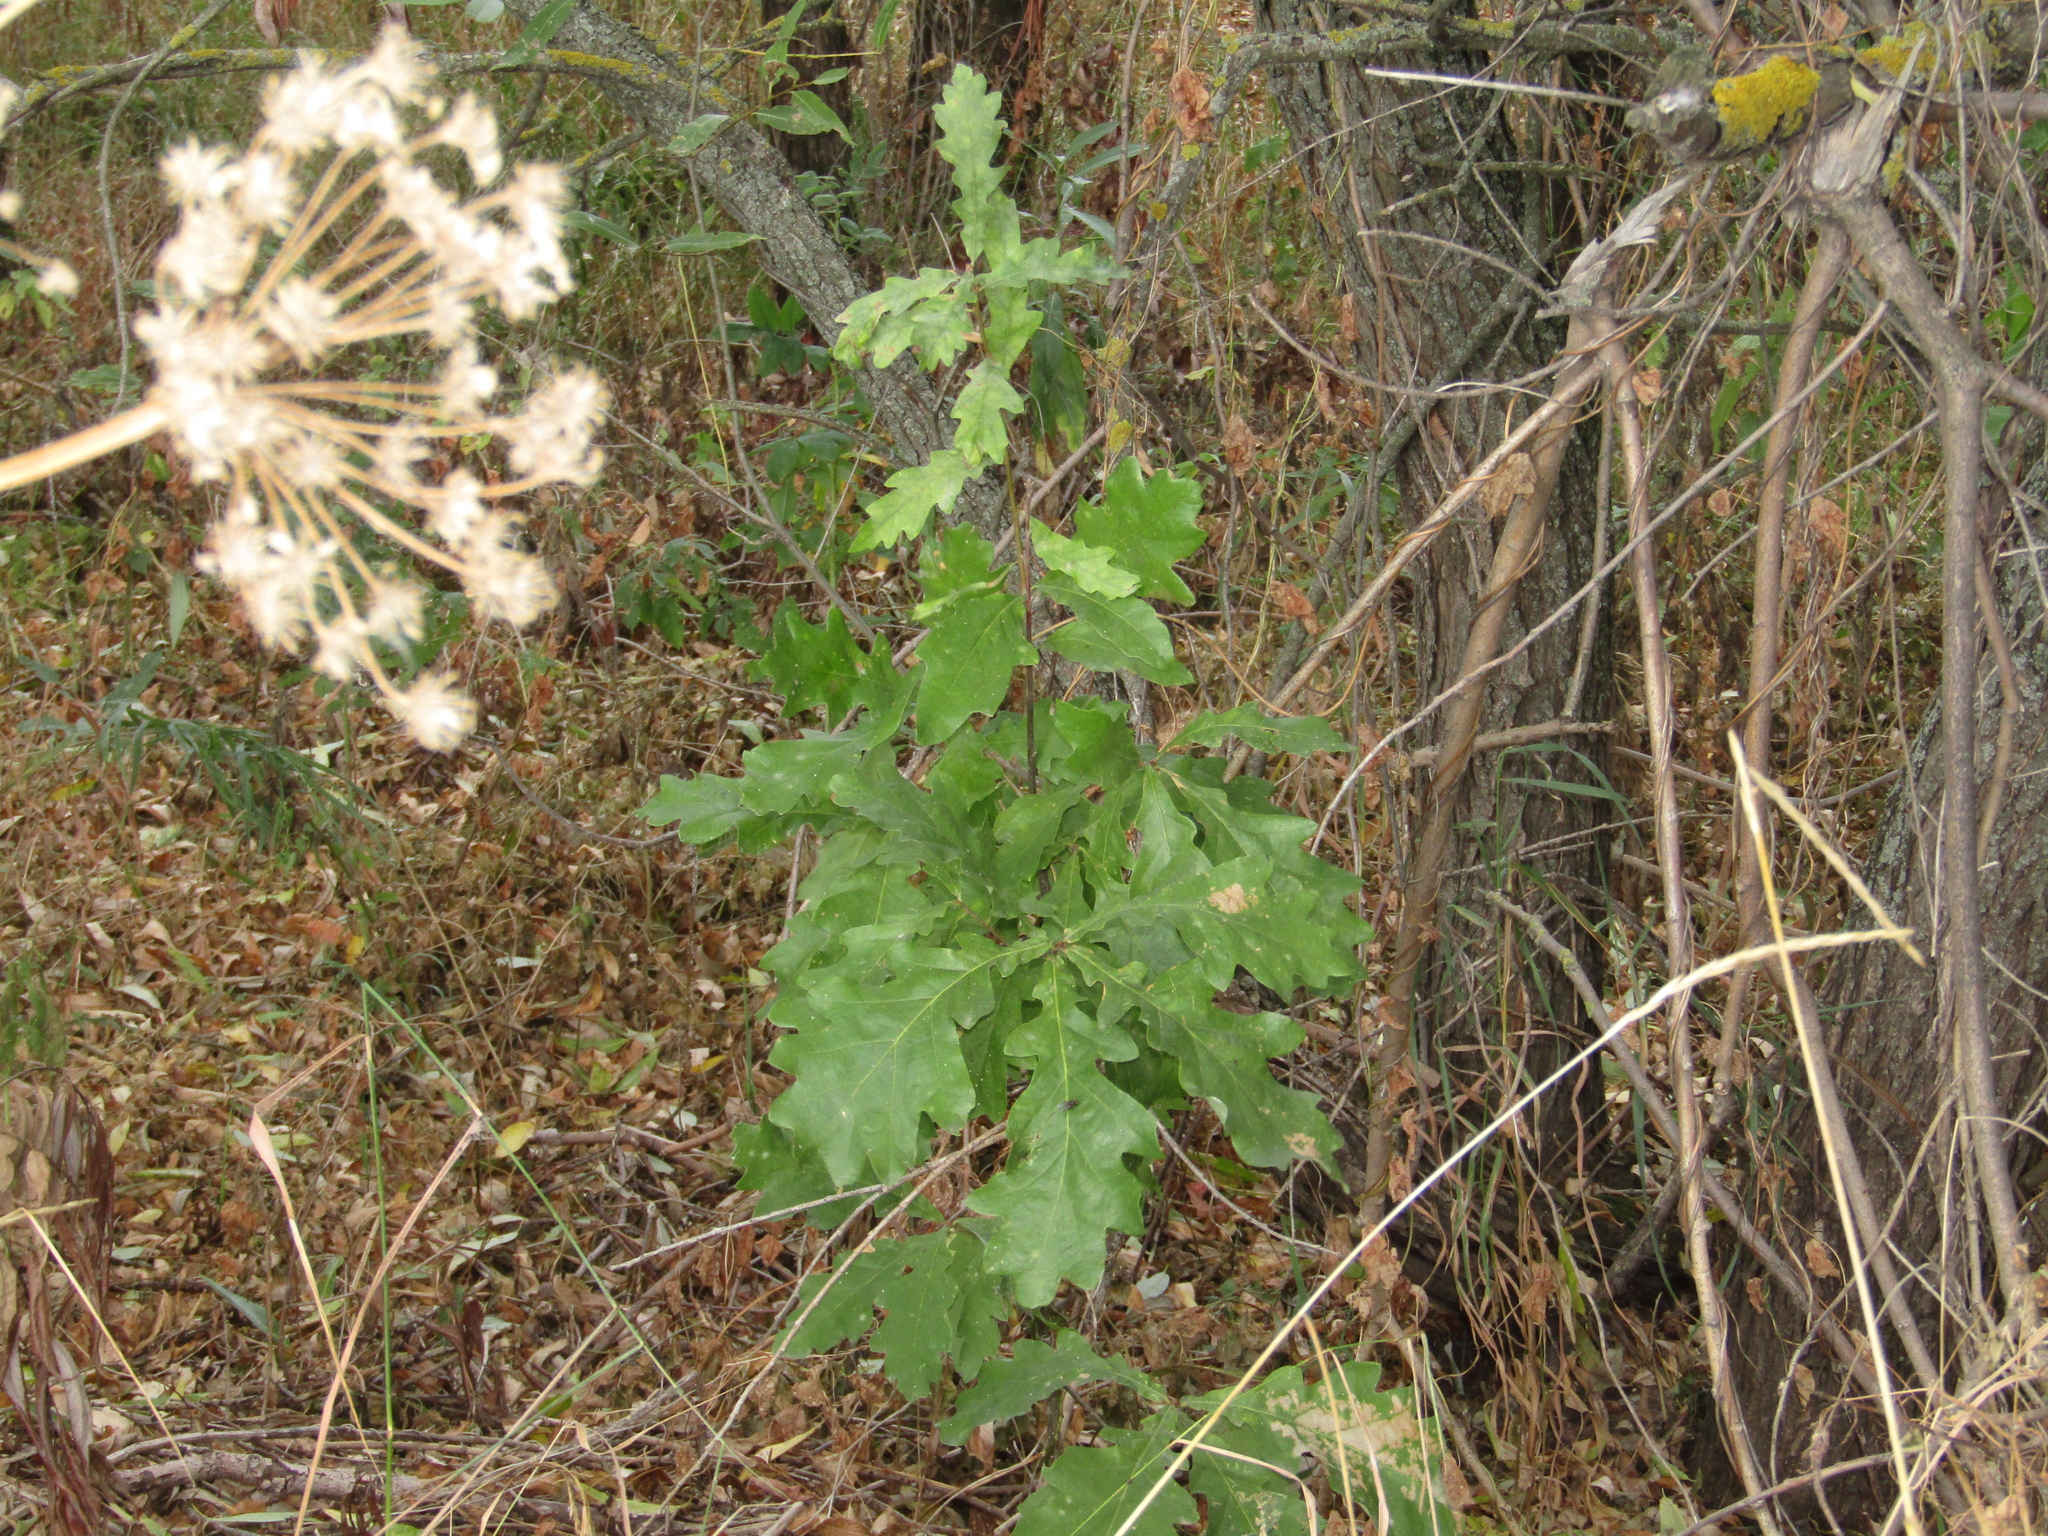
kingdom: Plantae
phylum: Tracheophyta
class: Magnoliopsida
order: Fagales
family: Fagaceae
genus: Quercus
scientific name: Quercus robur
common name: Pedunculate oak
